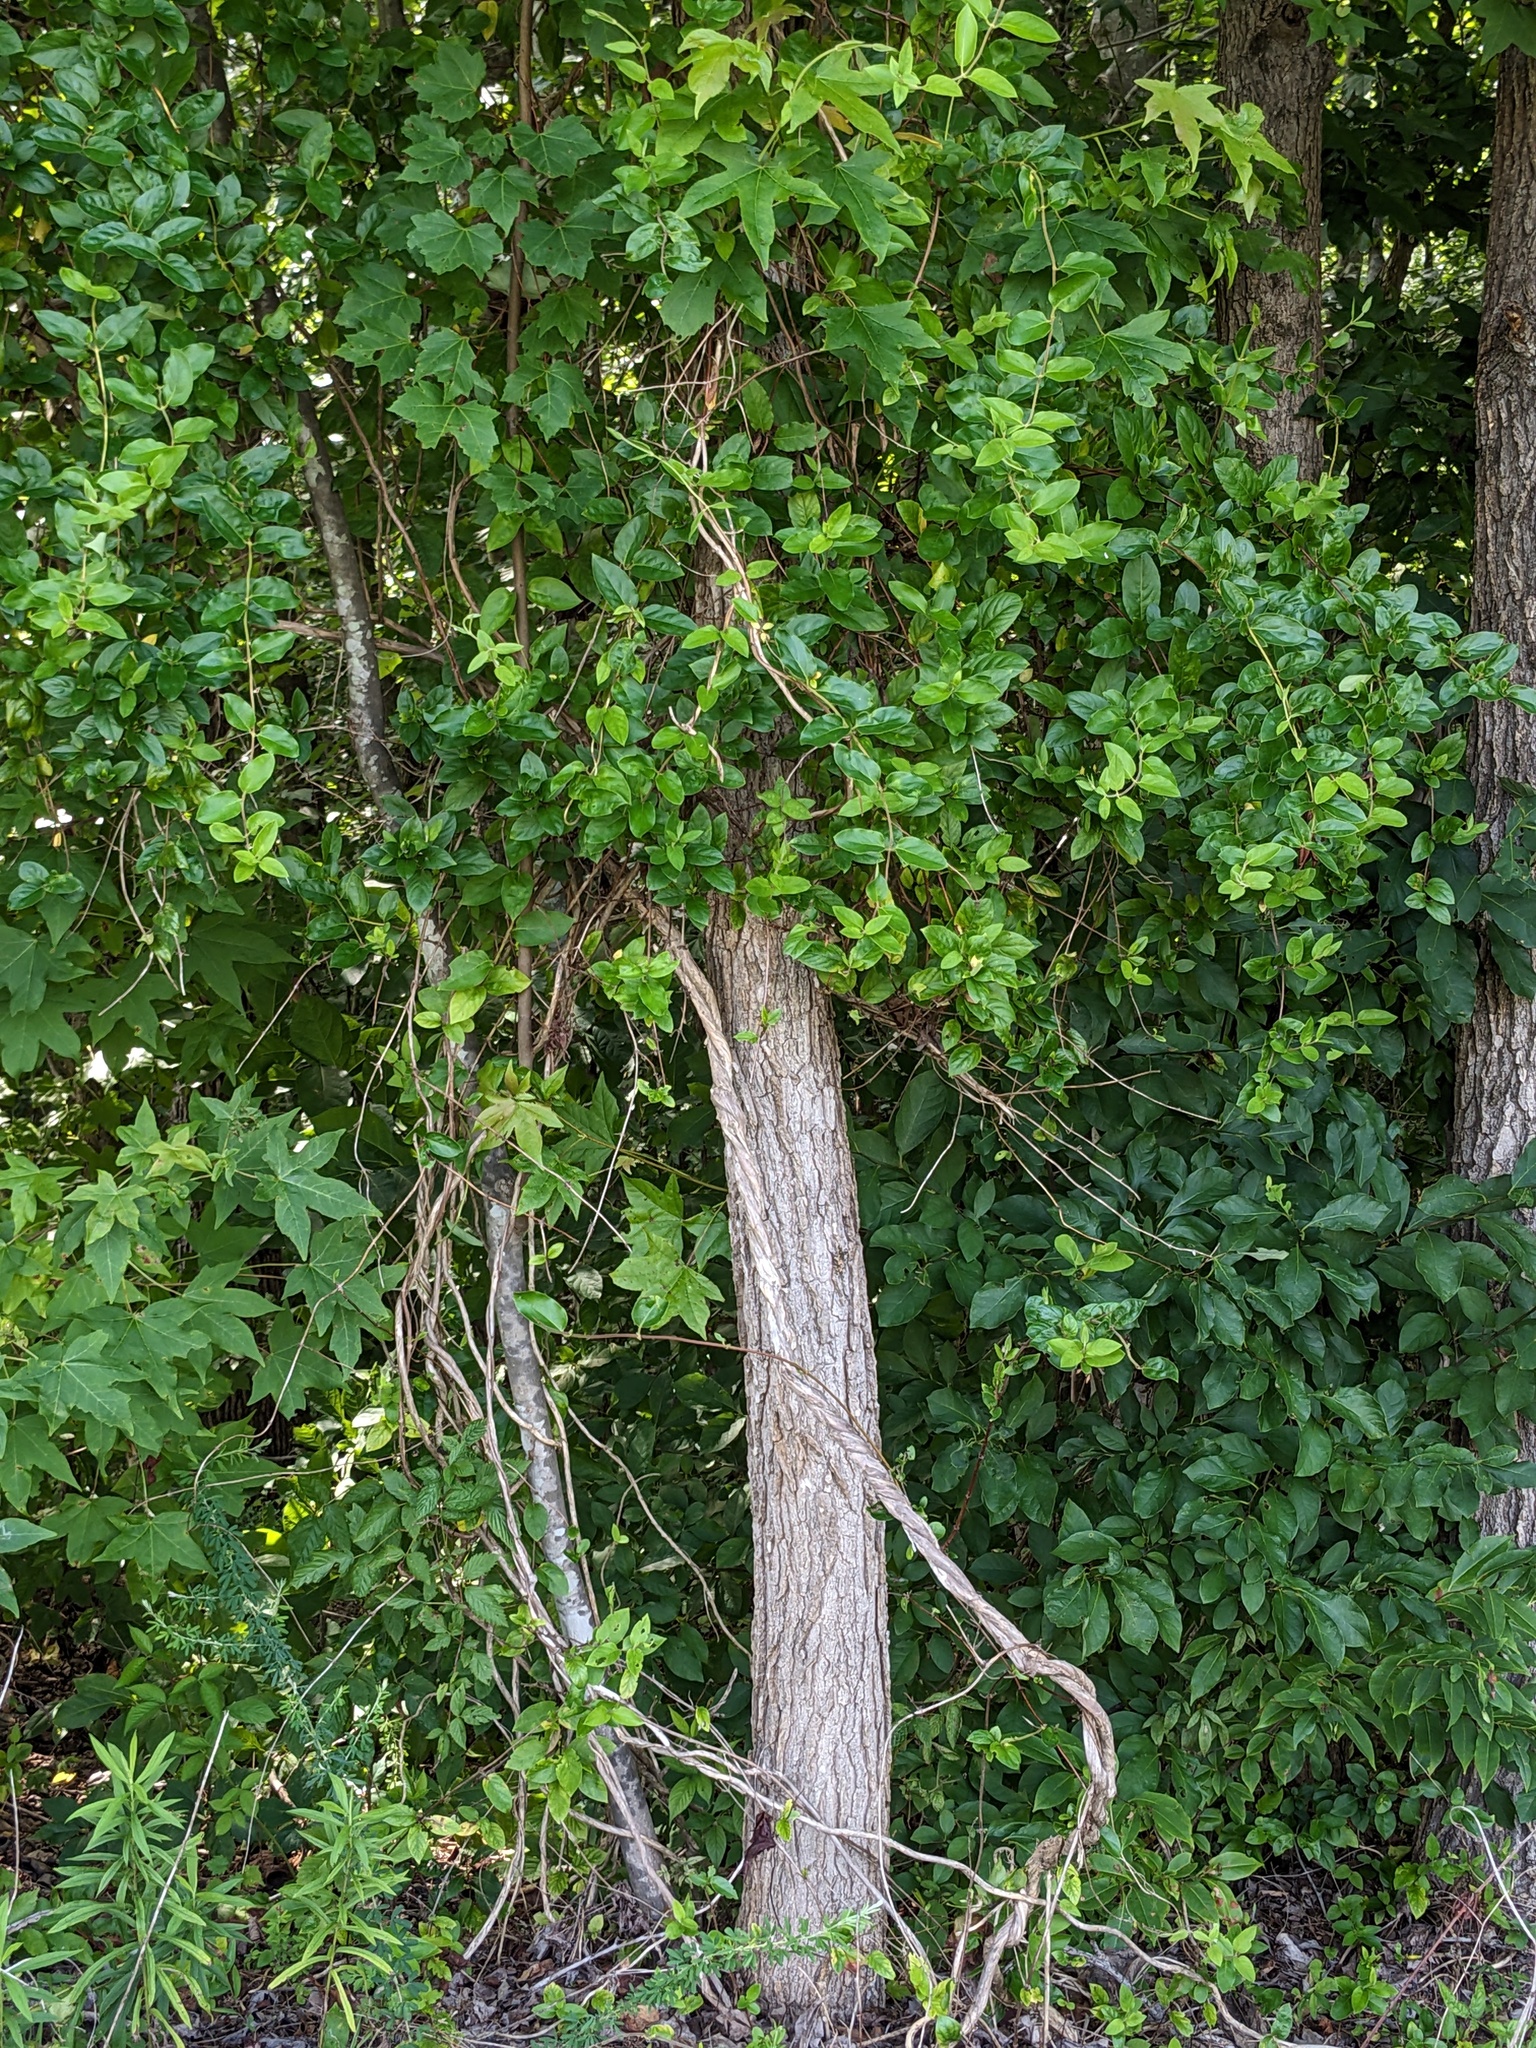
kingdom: Plantae
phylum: Tracheophyta
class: Magnoliopsida
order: Dipsacales
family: Caprifoliaceae
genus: Lonicera
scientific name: Lonicera japonica
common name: Japanese honeysuckle
